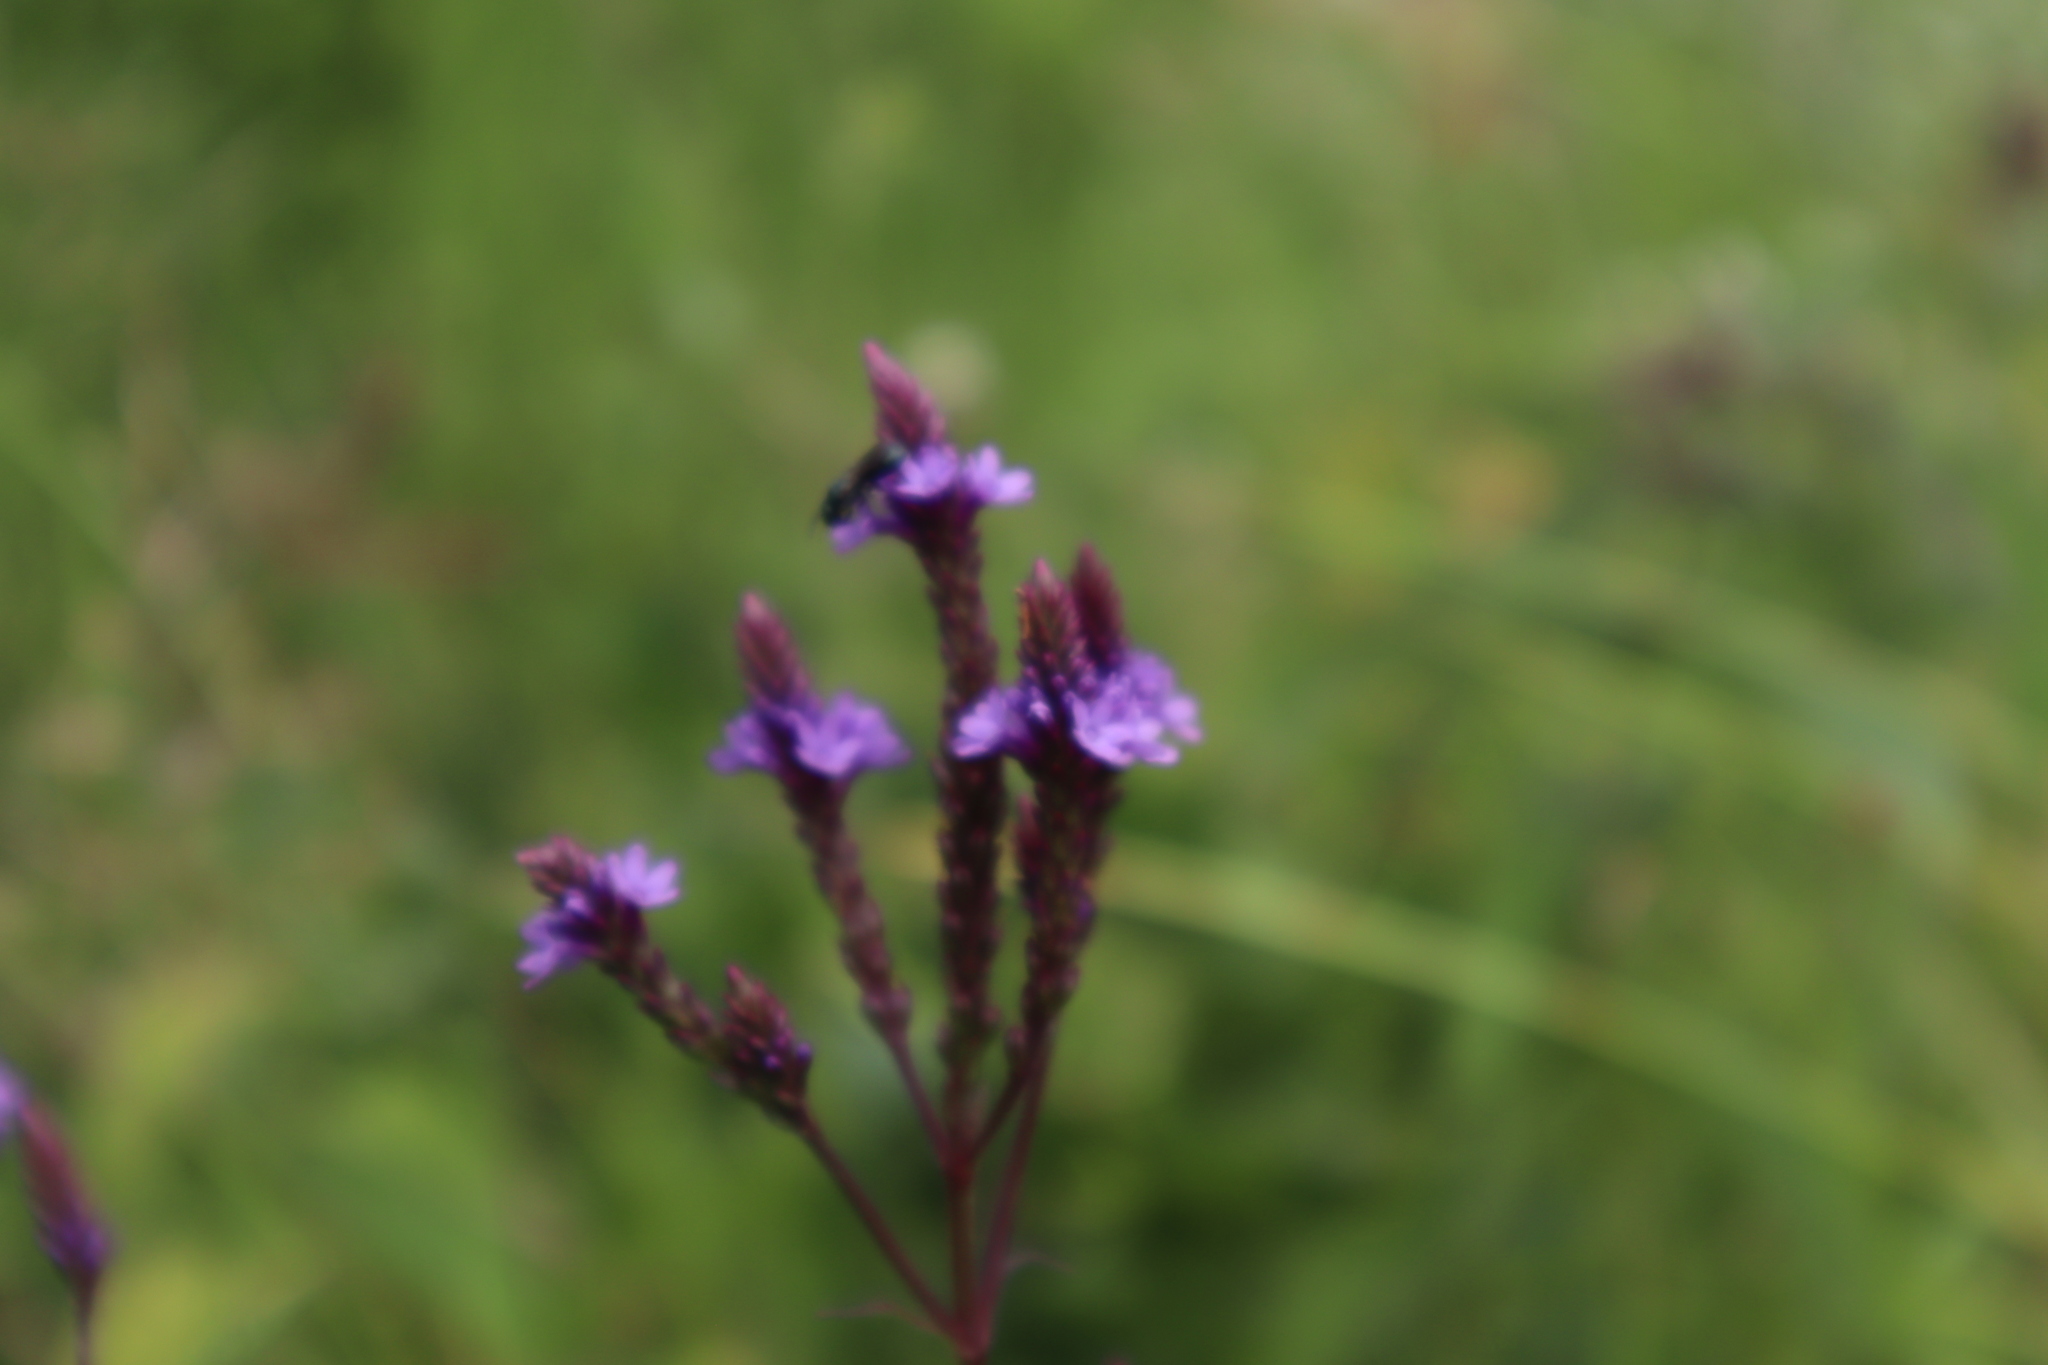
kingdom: Plantae
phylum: Tracheophyta
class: Magnoliopsida
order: Lamiales
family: Verbenaceae
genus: Verbena
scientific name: Verbena hastata
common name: American blue vervain
